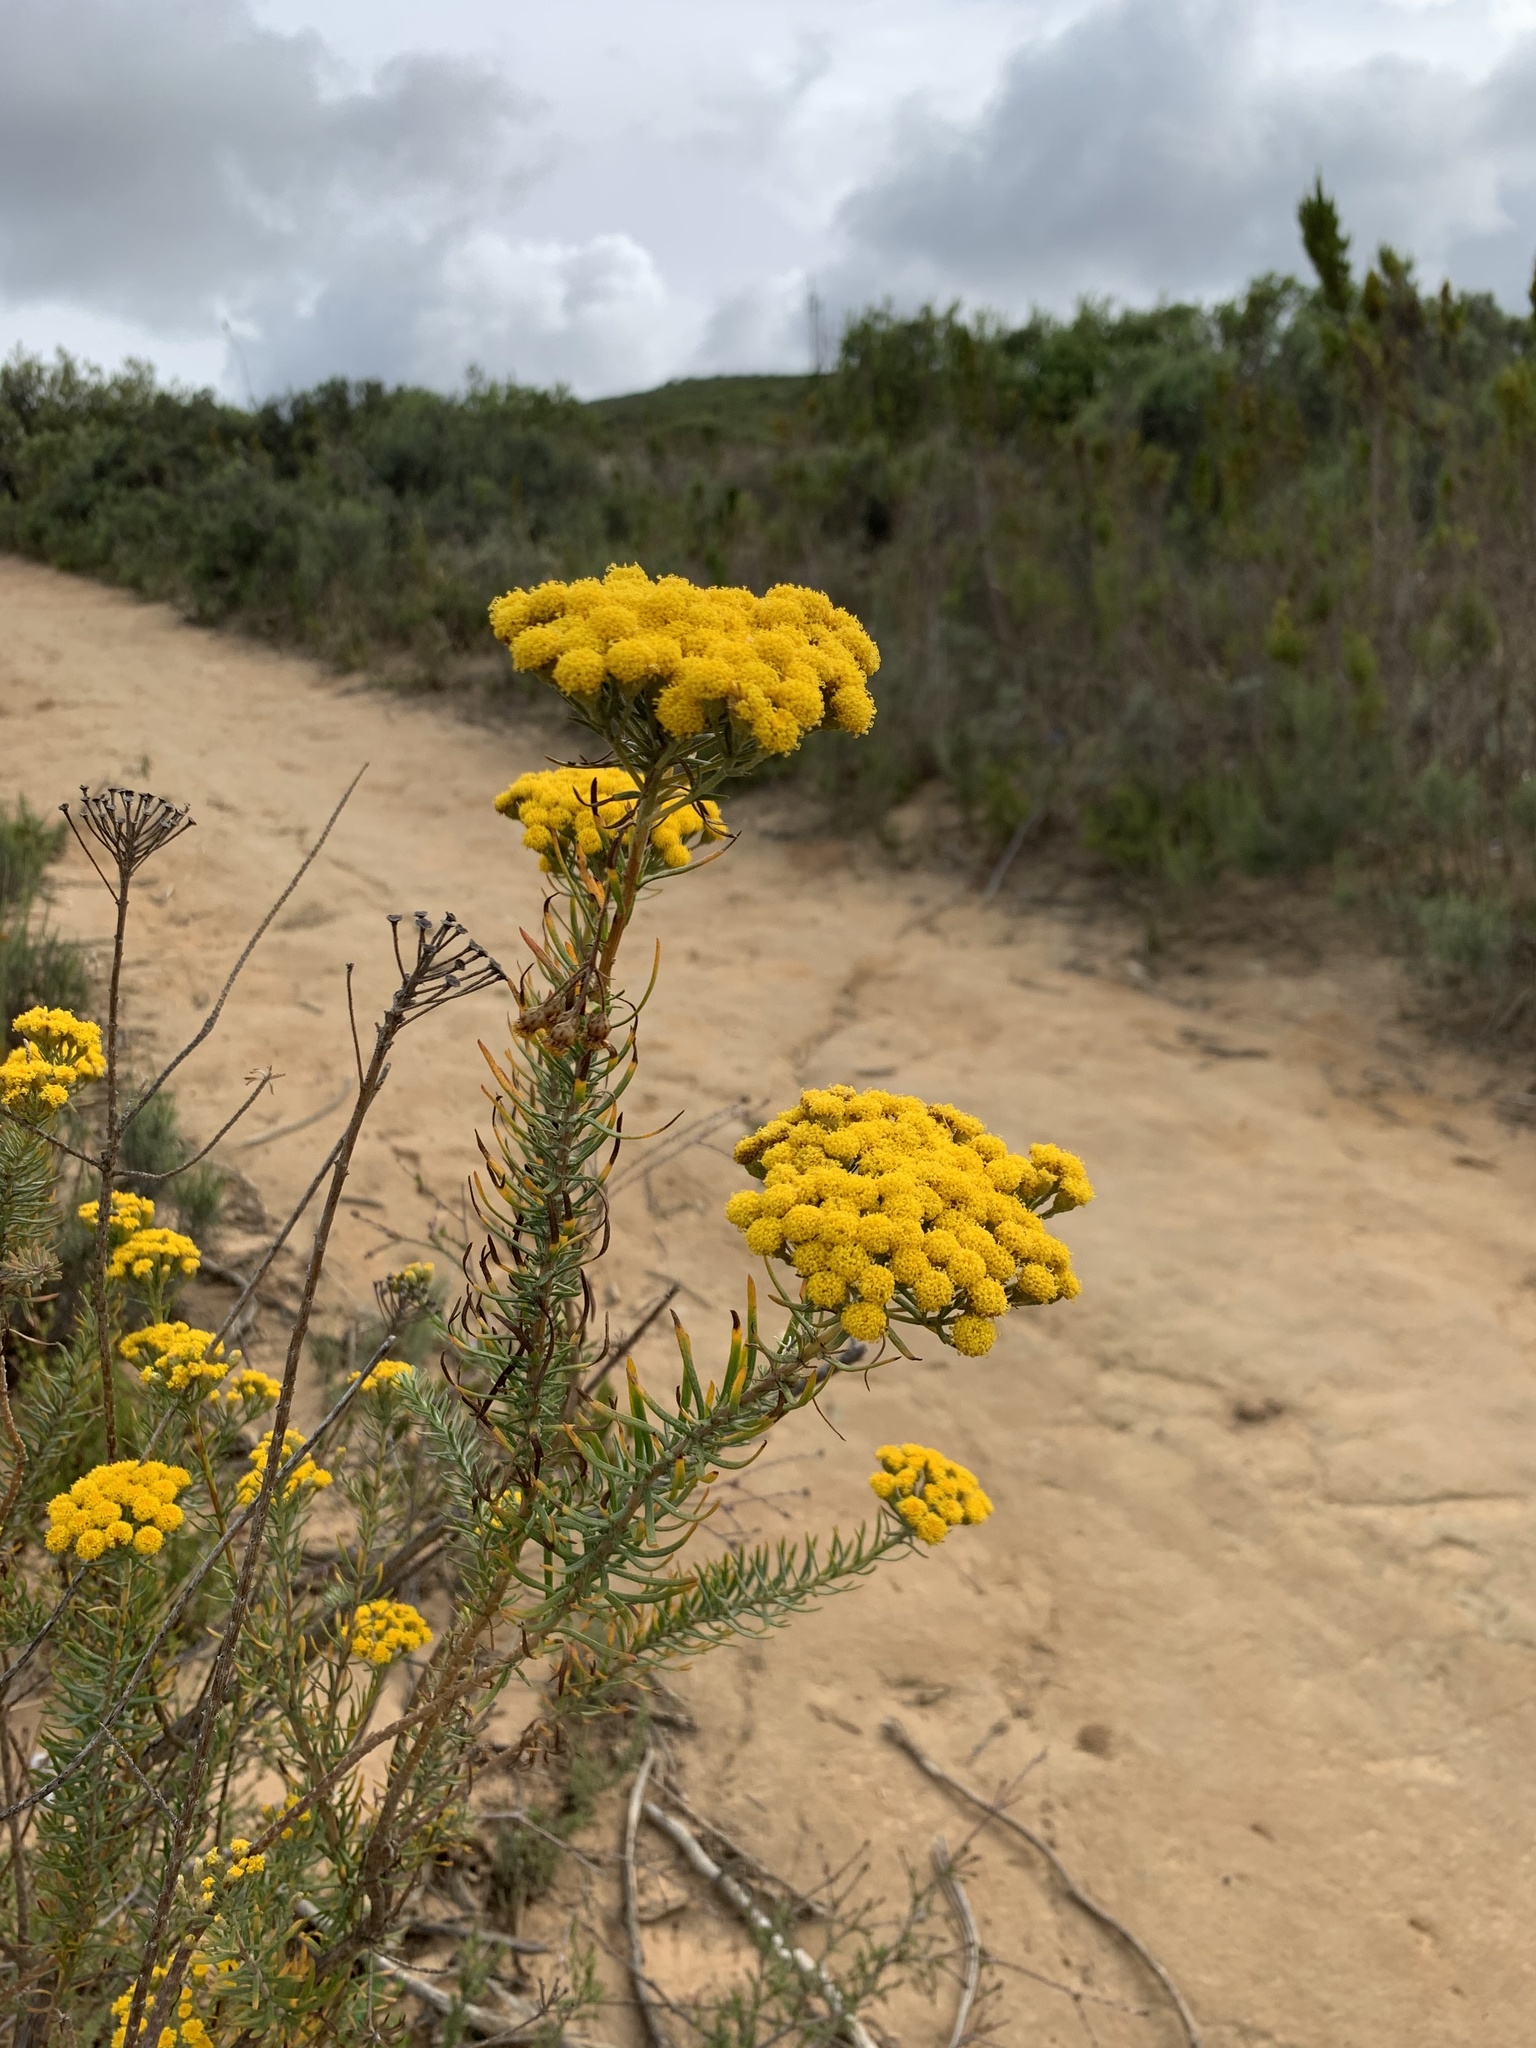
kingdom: Plantae
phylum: Tracheophyta
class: Magnoliopsida
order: Asterales
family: Asteraceae
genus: Athanasia
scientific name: Athanasia trifurcata
